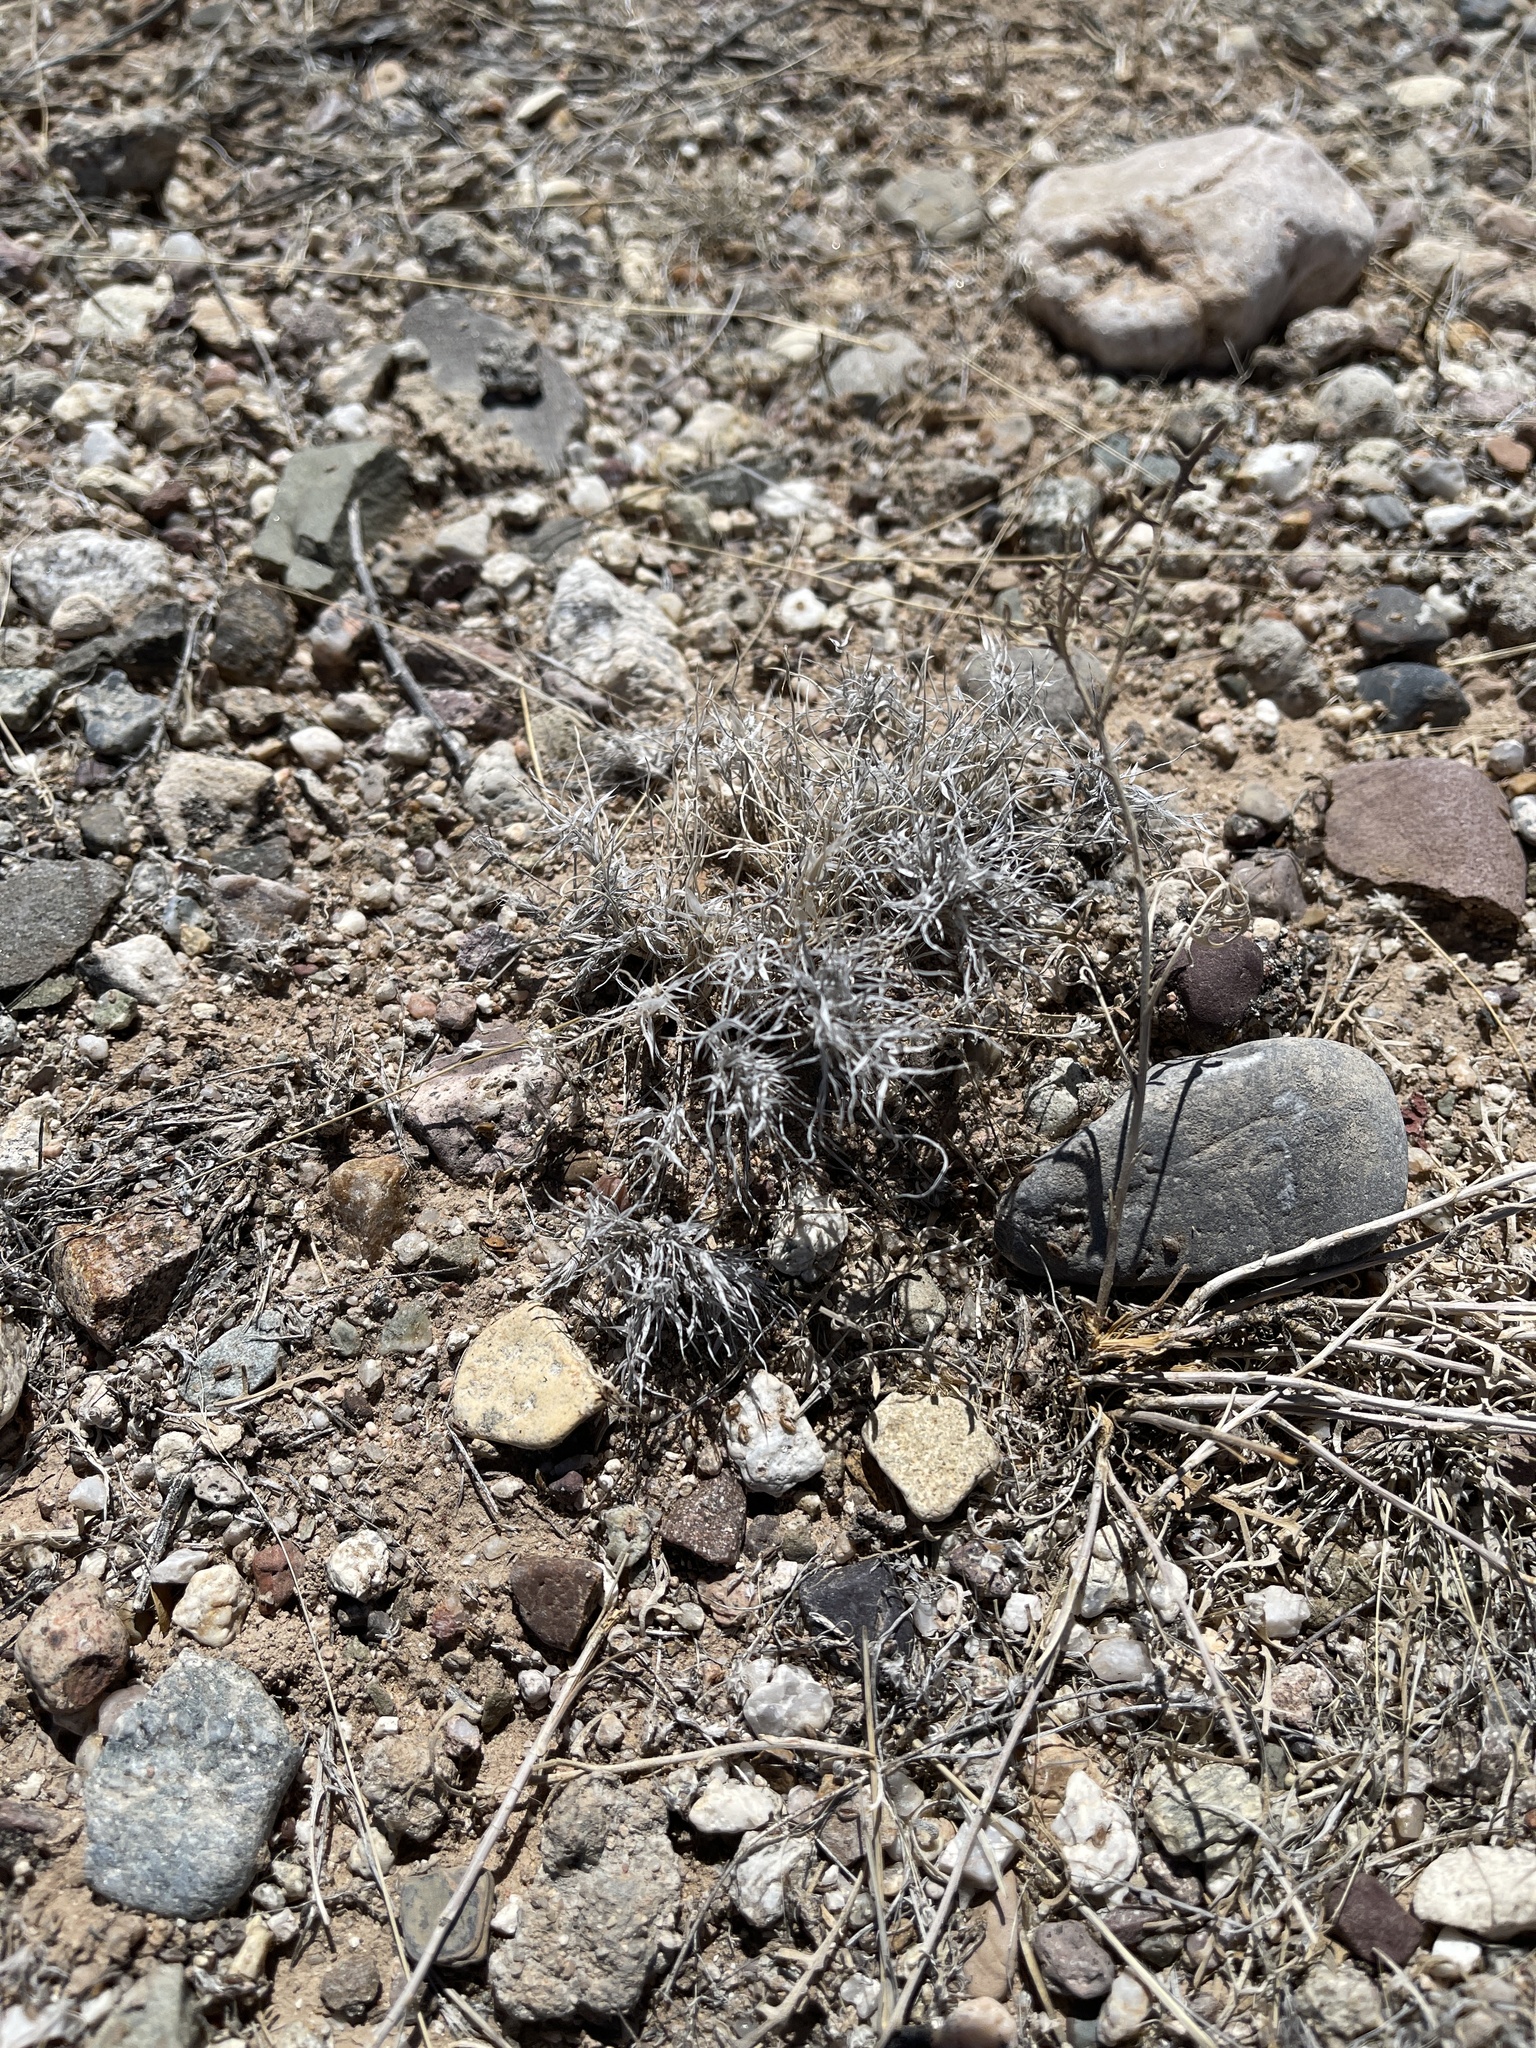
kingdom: Plantae
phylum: Tracheophyta
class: Liliopsida
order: Poales
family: Poaceae
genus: Dasyochloa
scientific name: Dasyochloa pulchella
